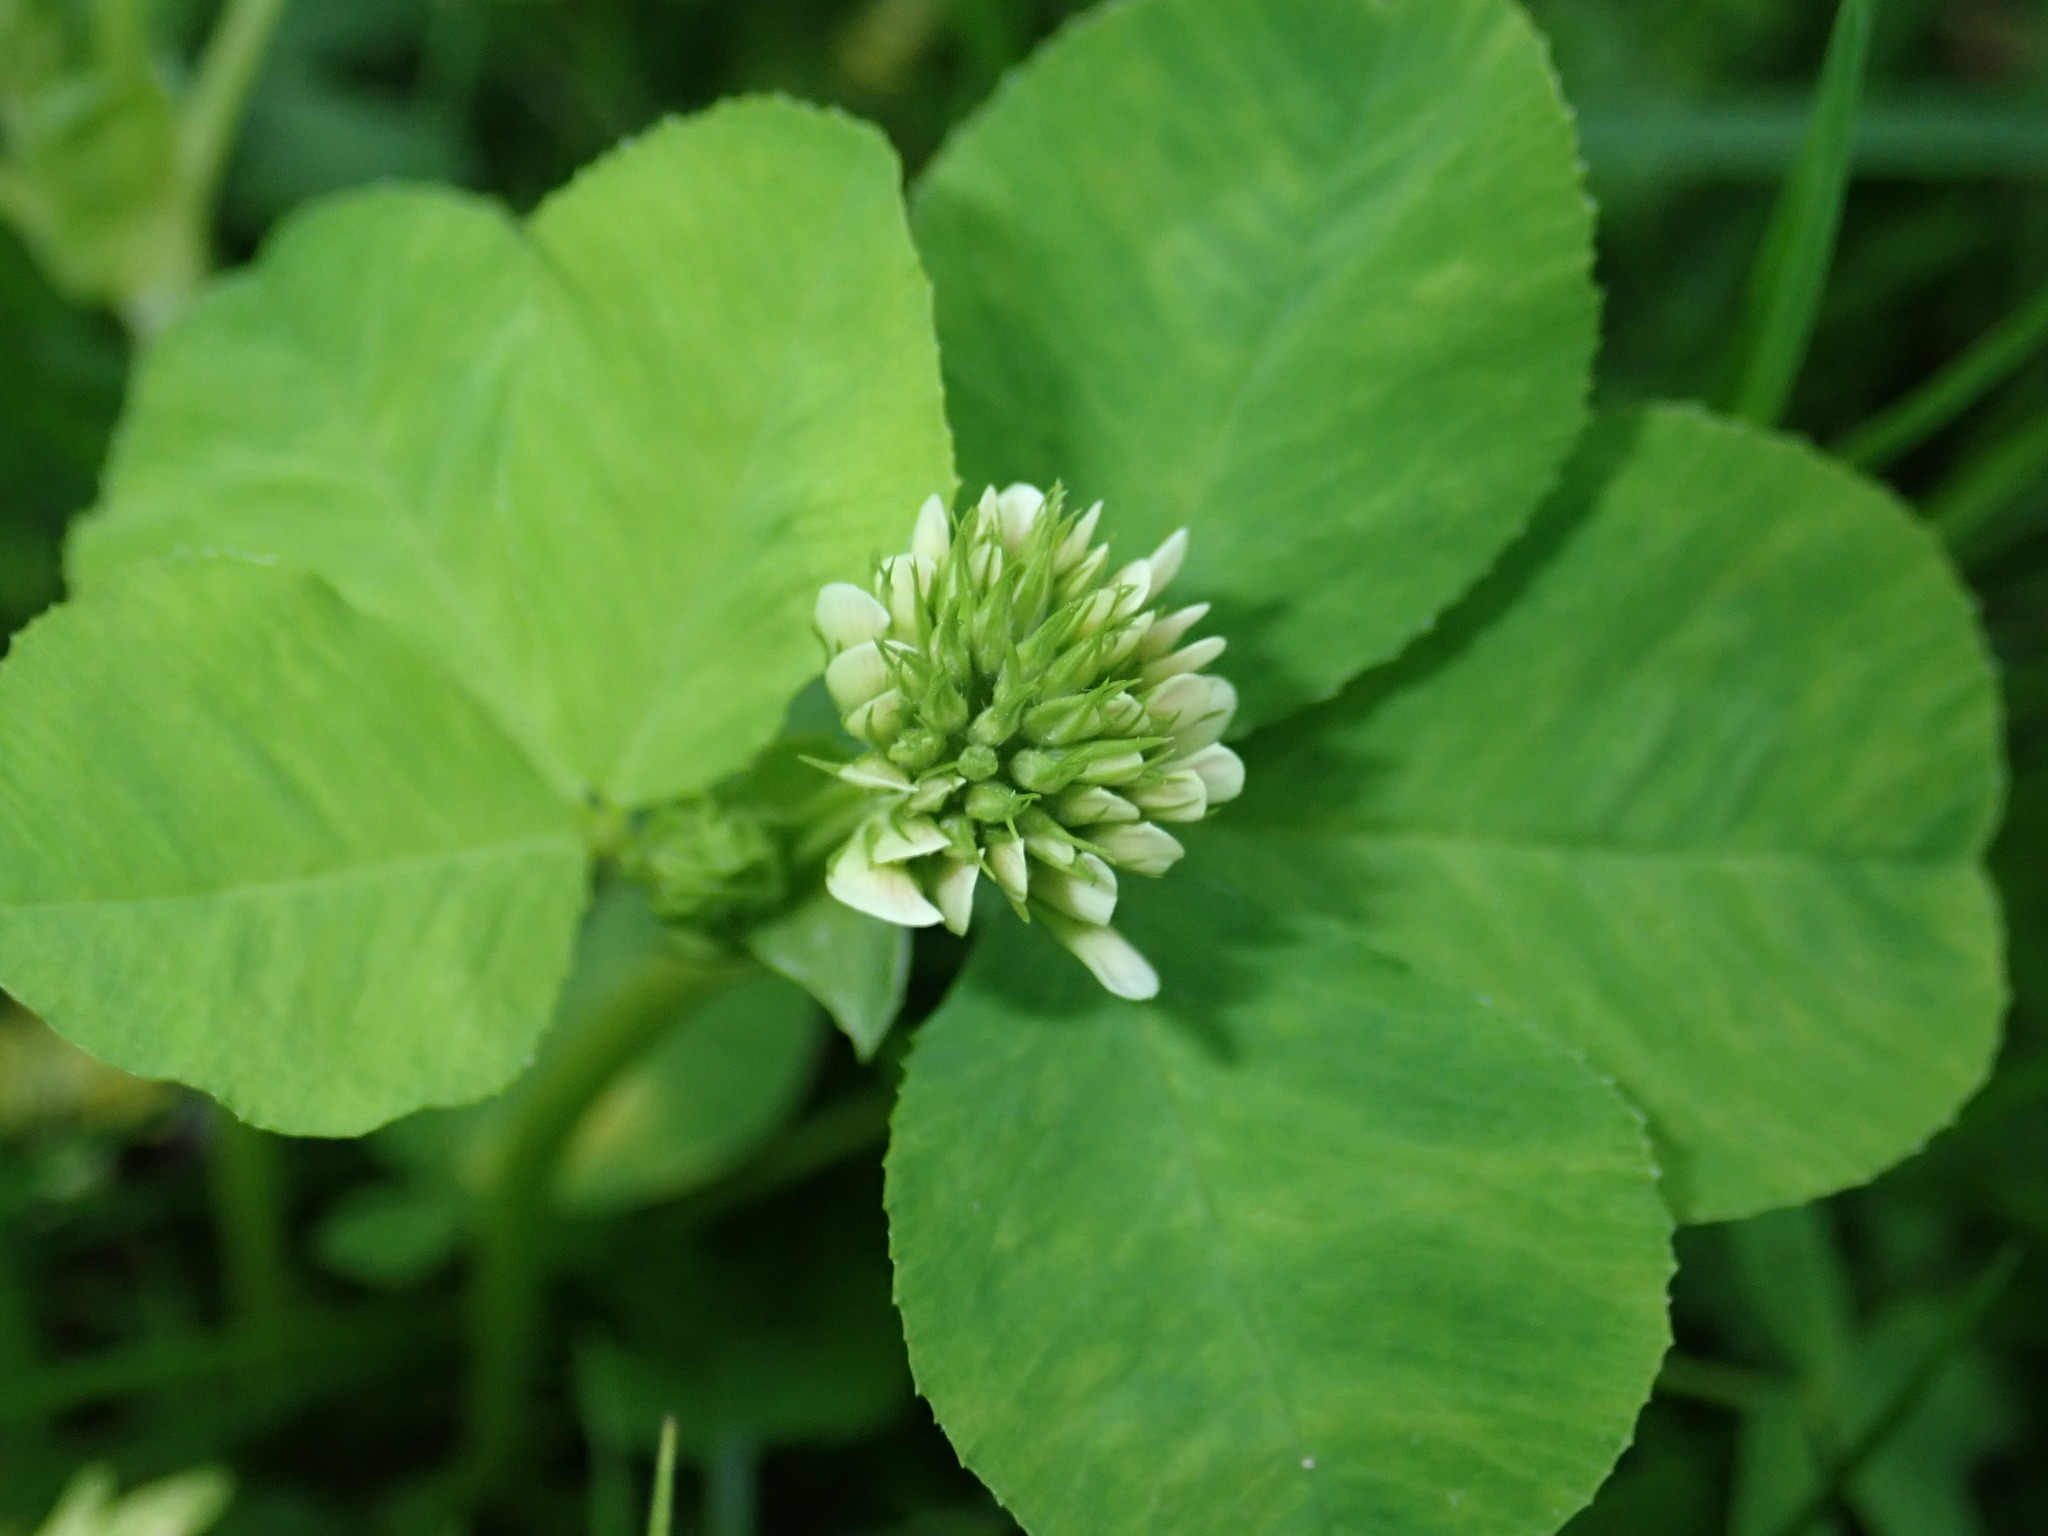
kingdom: Plantae
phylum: Tracheophyta
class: Magnoliopsida
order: Fabales
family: Fabaceae
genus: Trifolium
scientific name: Trifolium stoloniferum
